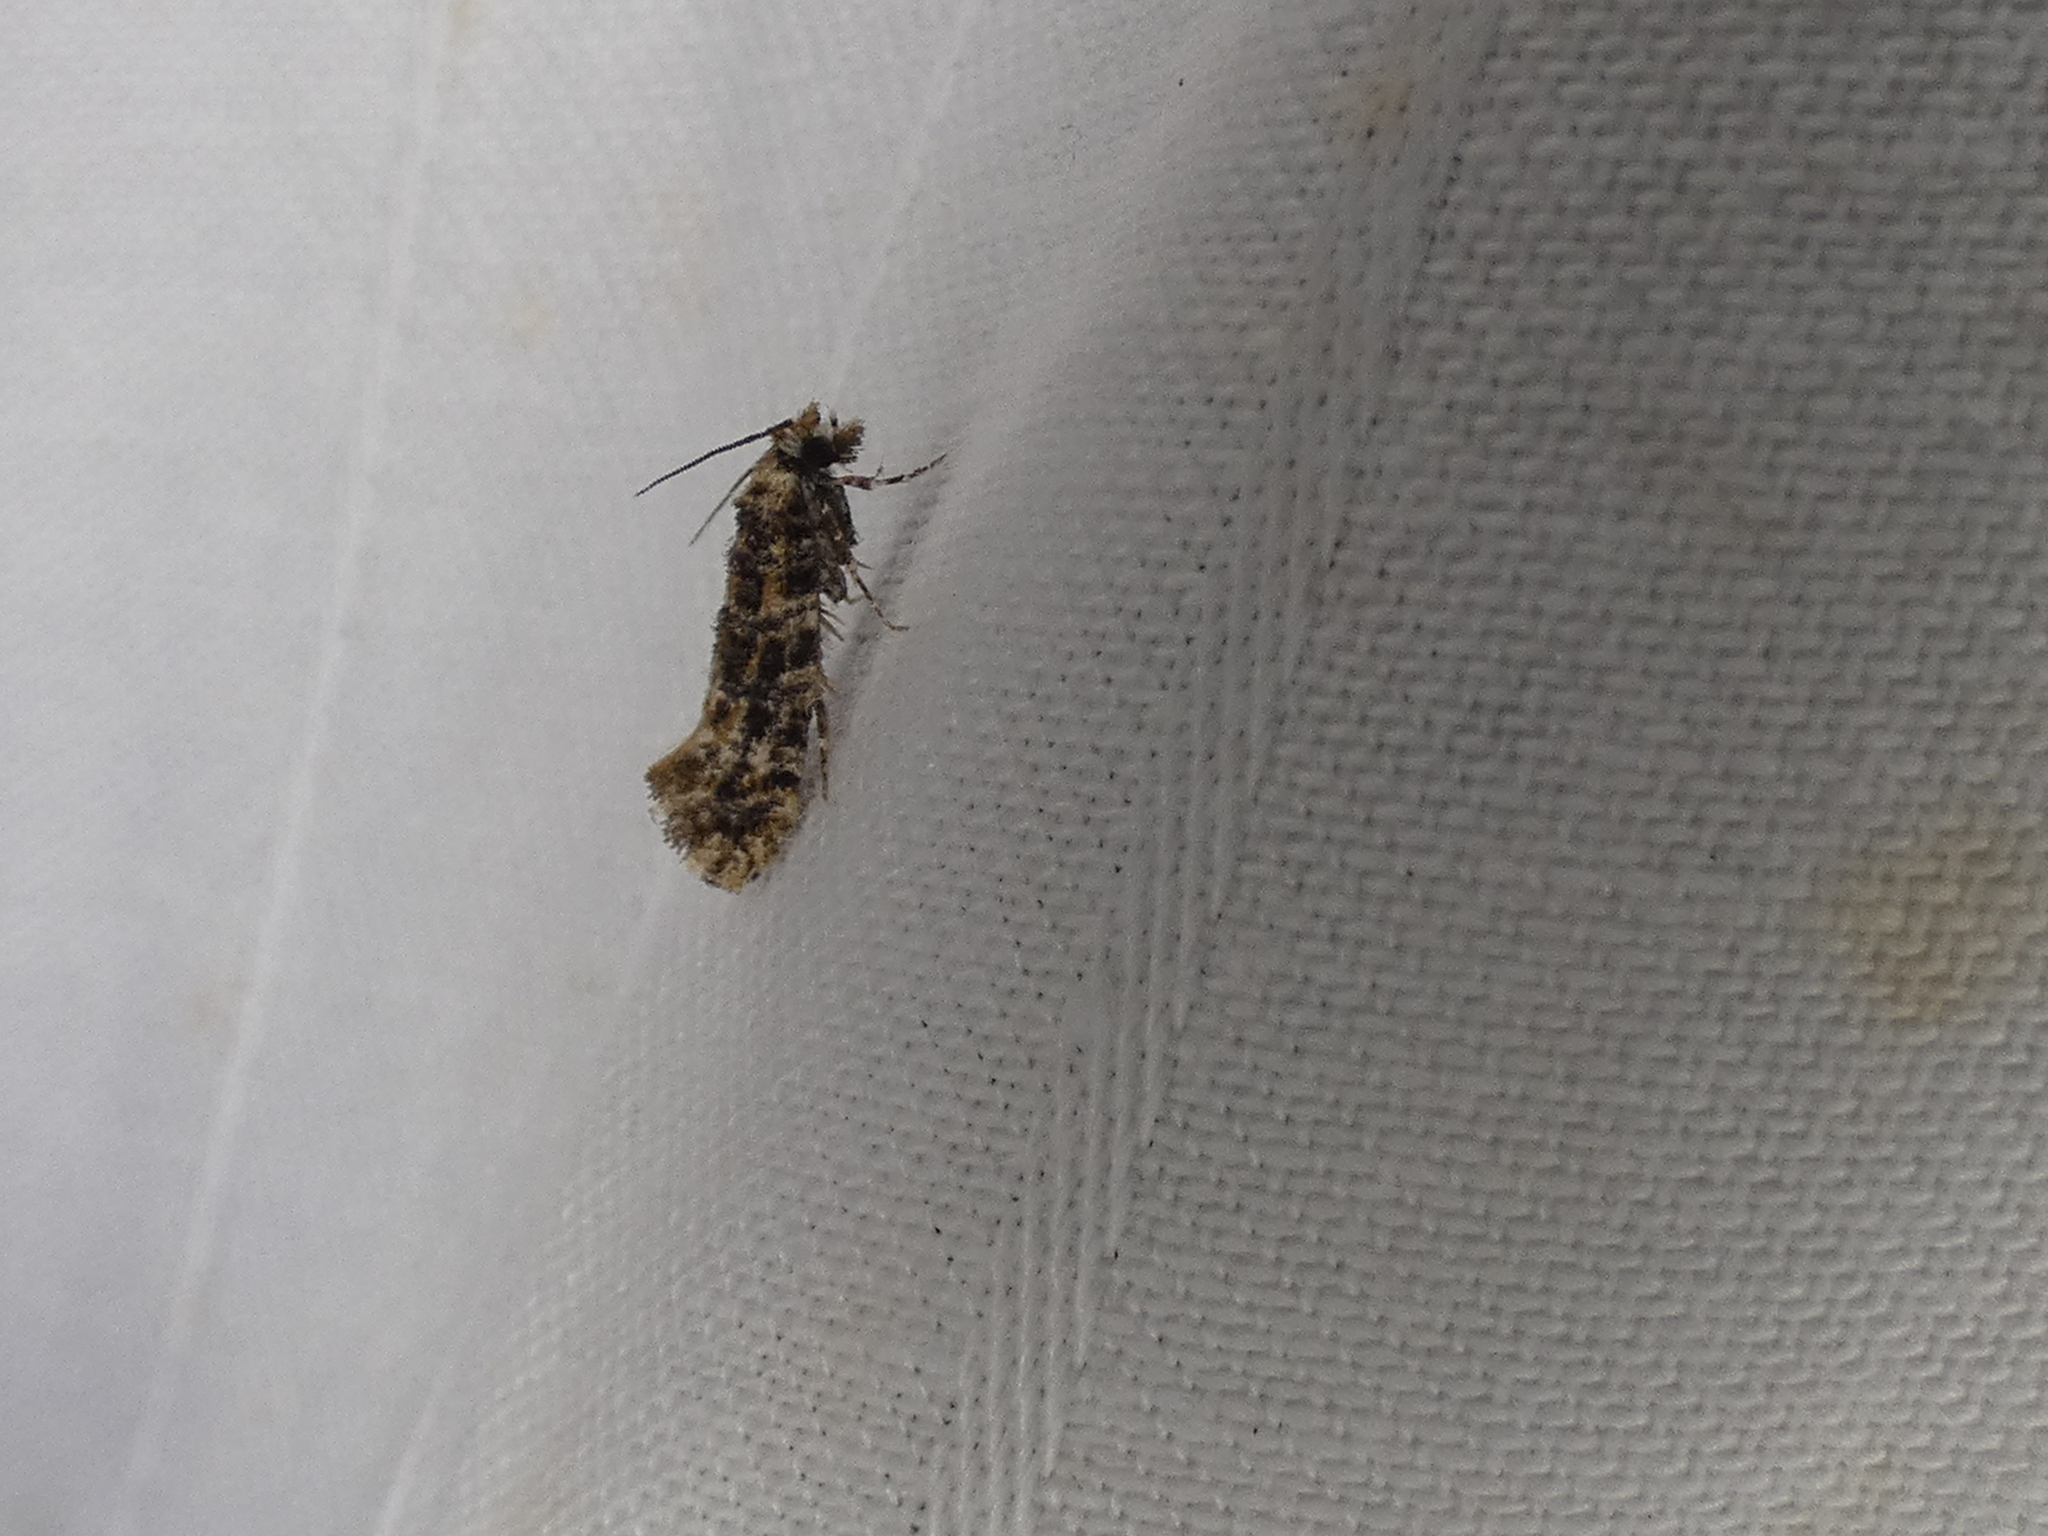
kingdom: Animalia
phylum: Arthropoda
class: Insecta
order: Lepidoptera
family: Tineidae
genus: Xylesthia
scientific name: Xylesthia pruniramiella
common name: Clemens' bark moth
